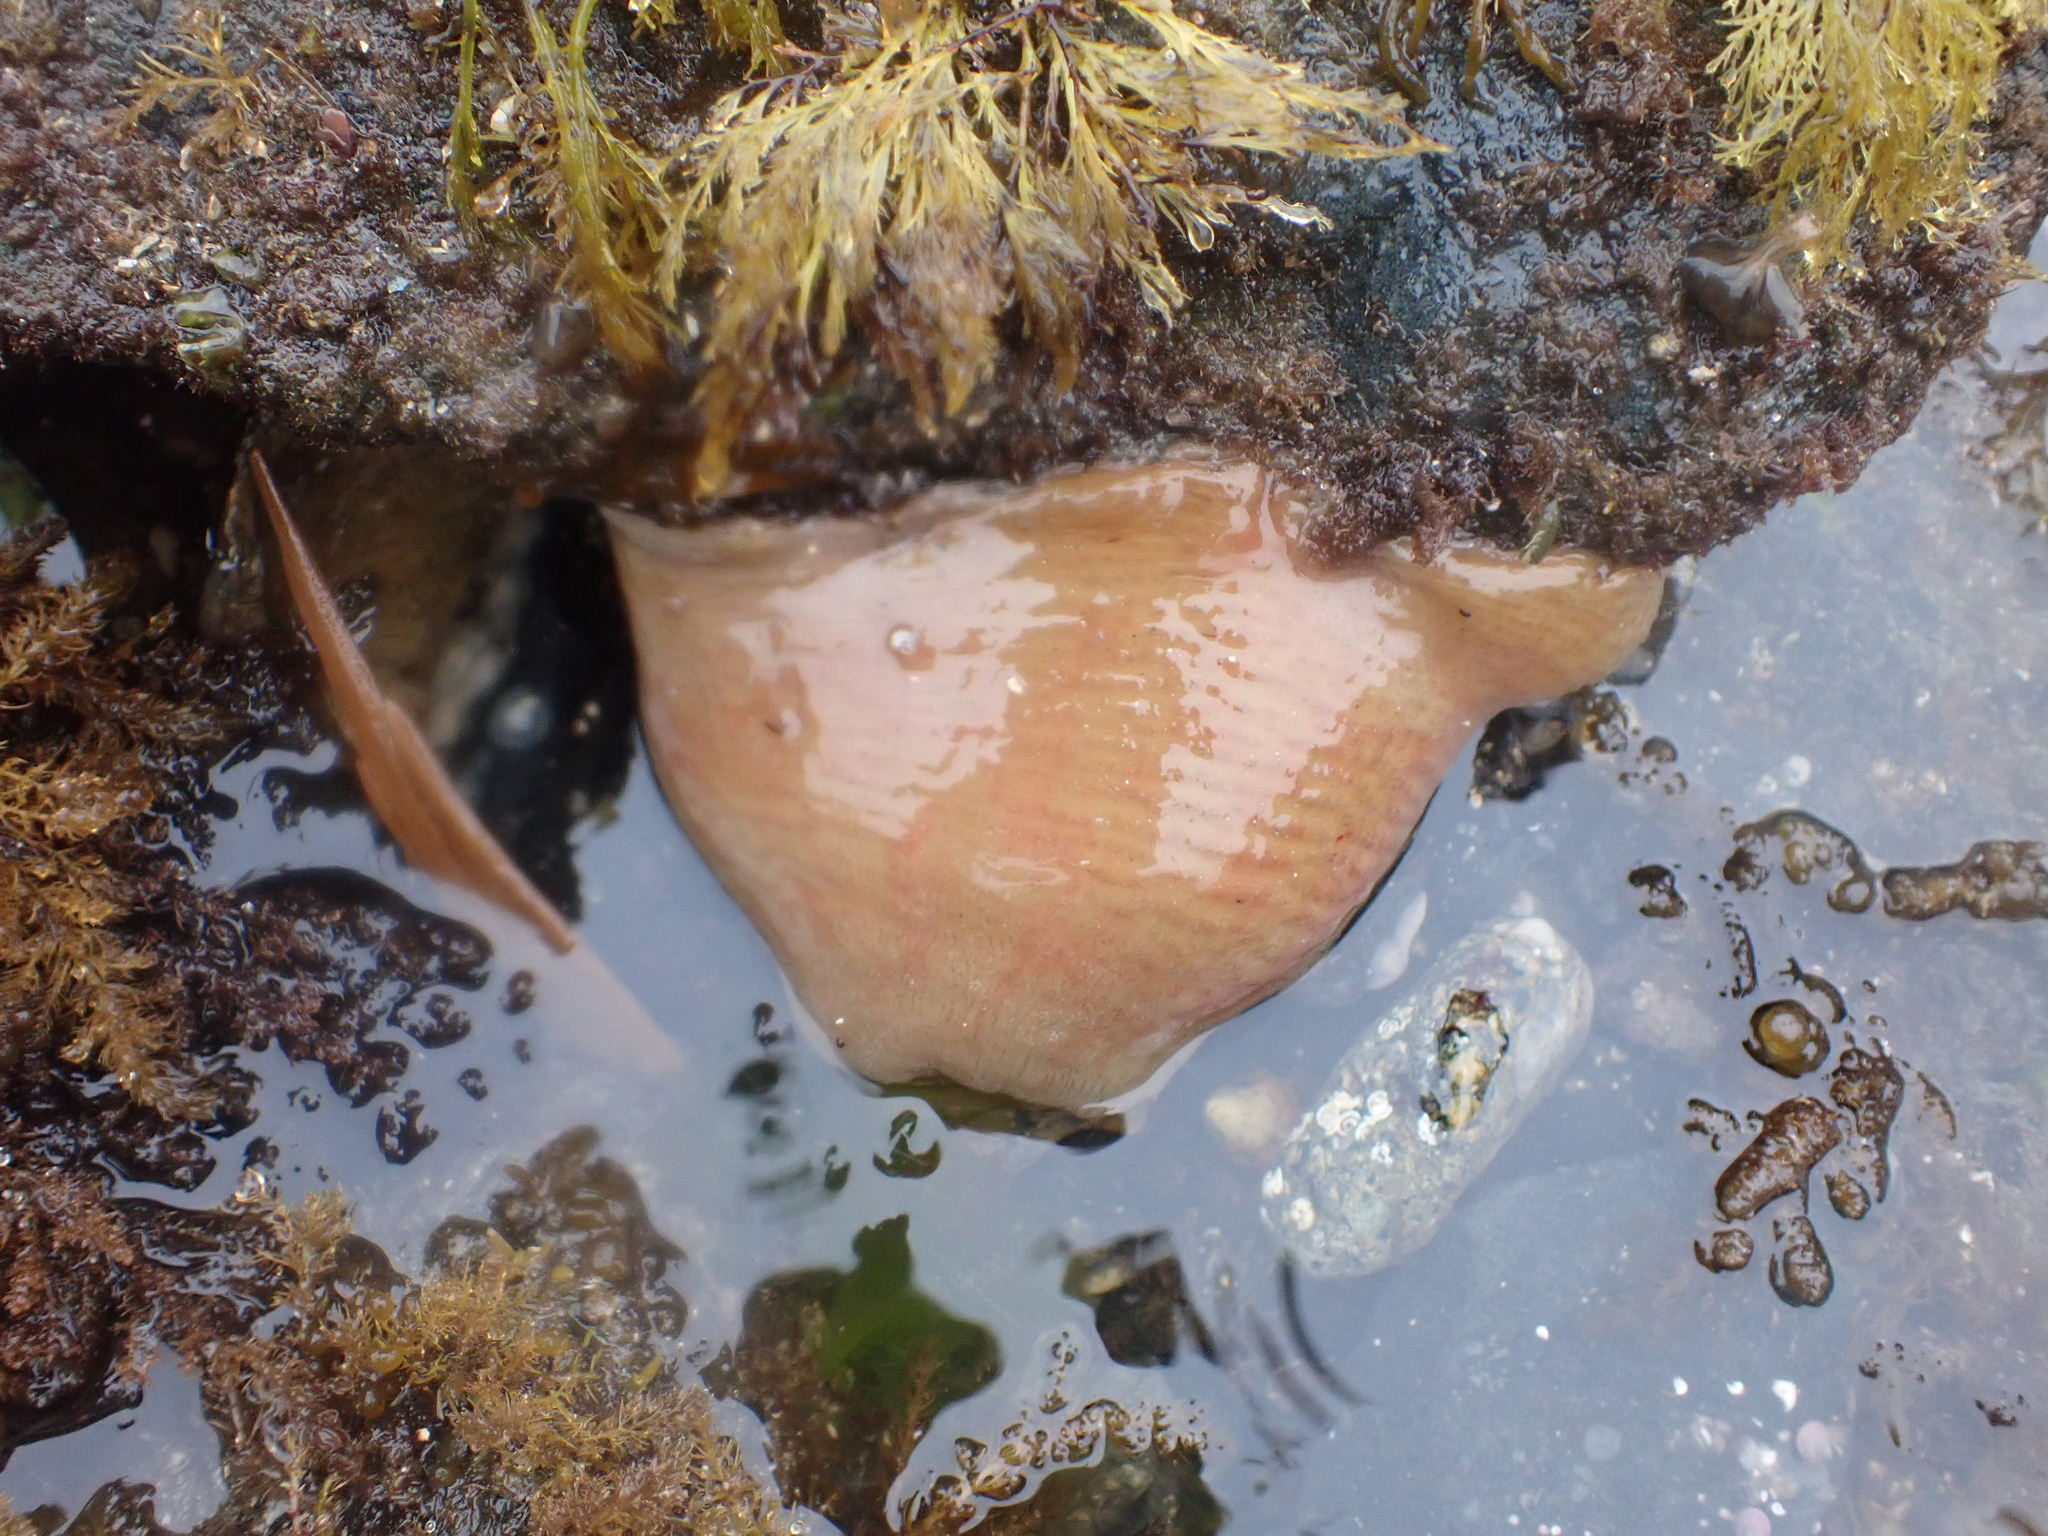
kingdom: Animalia
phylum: Cnidaria
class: Anthozoa
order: Actiniaria
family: Actiniidae
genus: Urticina
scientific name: Urticina grebelnyi
